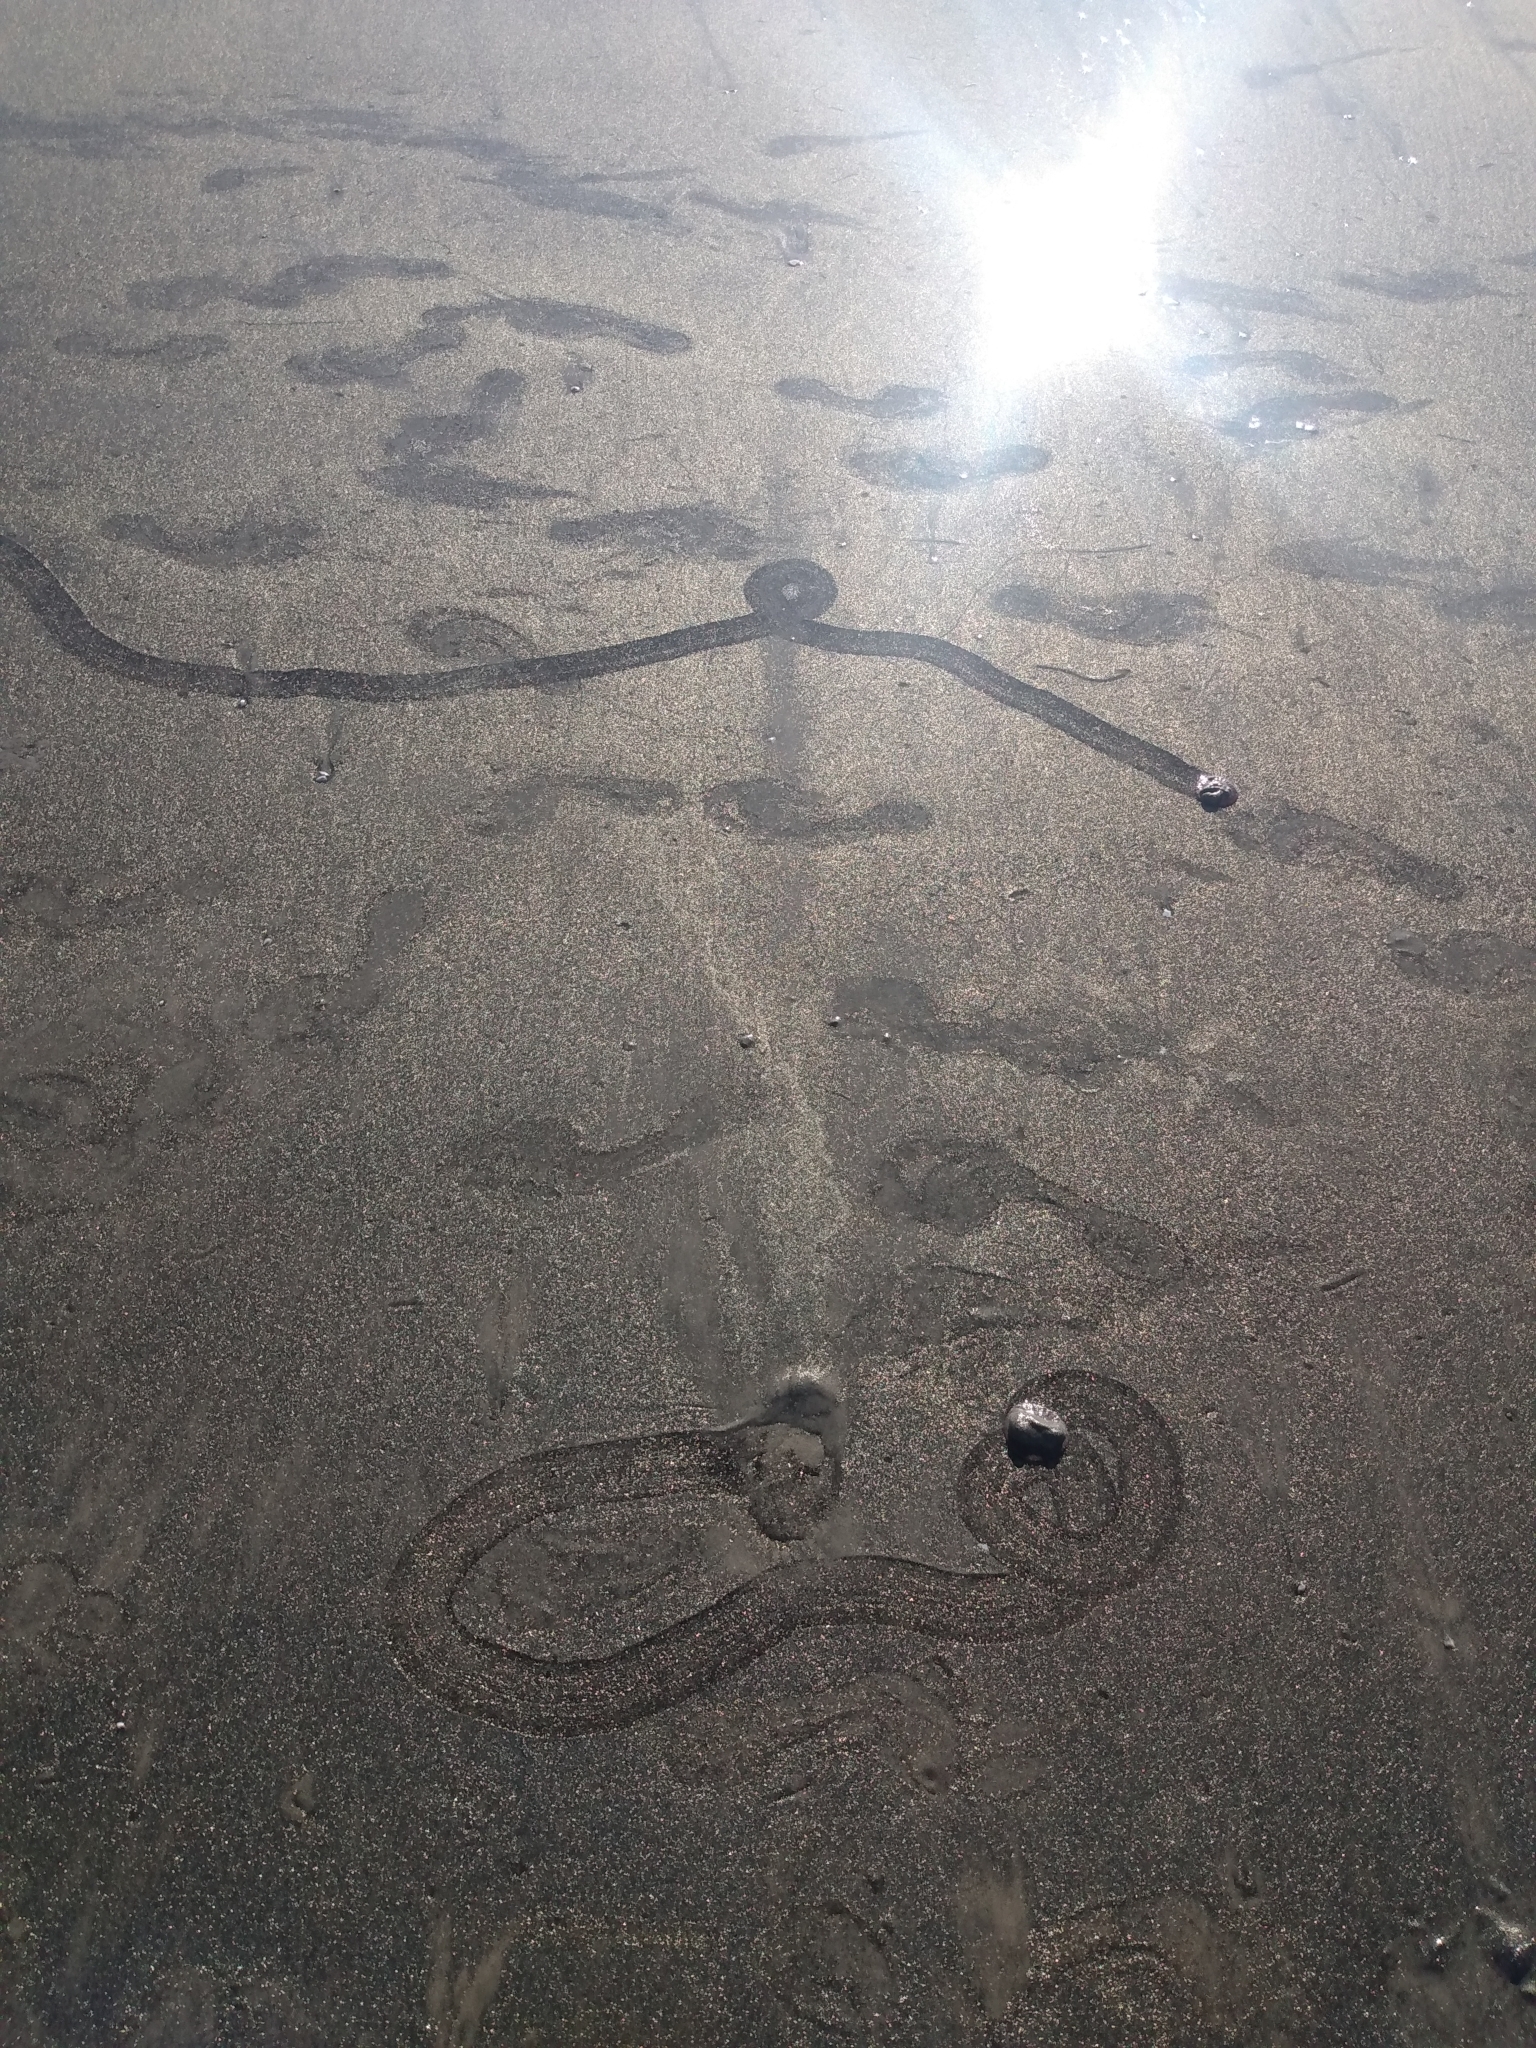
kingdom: Animalia
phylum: Echinodermata
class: Echinoidea
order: Echinolampadacea
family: Dendrasteridae
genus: Dendraster
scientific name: Dendraster excentricus
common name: Eccentric sand dollar sea urchin
